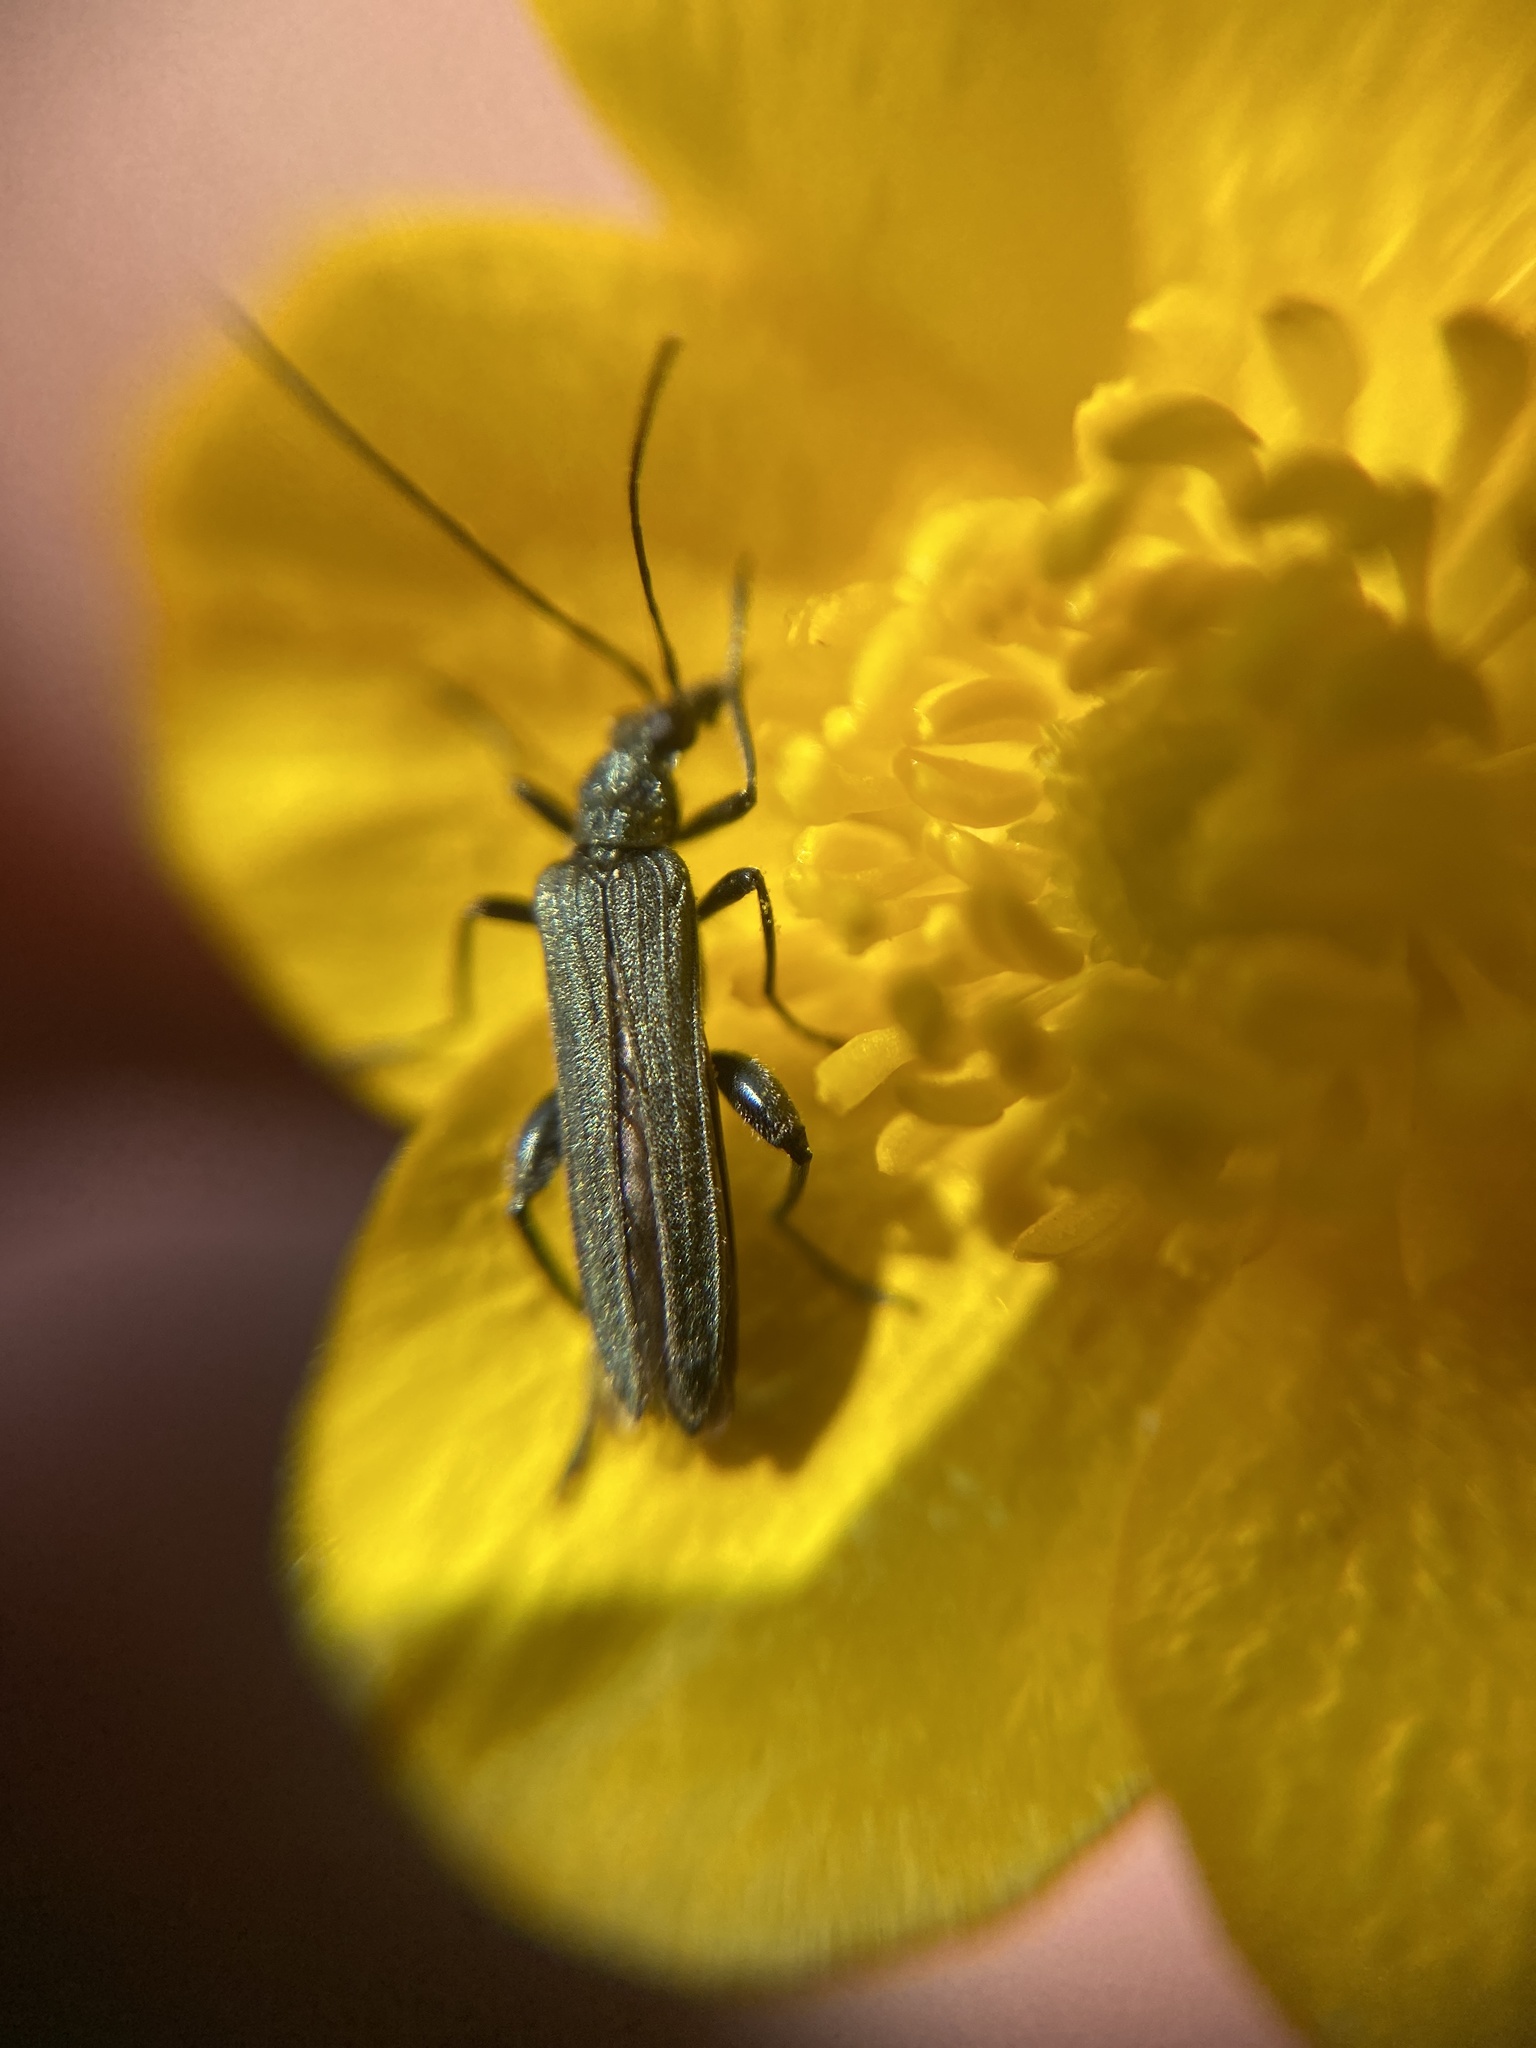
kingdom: Animalia
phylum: Arthropoda
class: Insecta
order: Coleoptera
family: Oedemeridae
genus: Oedemera
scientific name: Oedemera virescens
